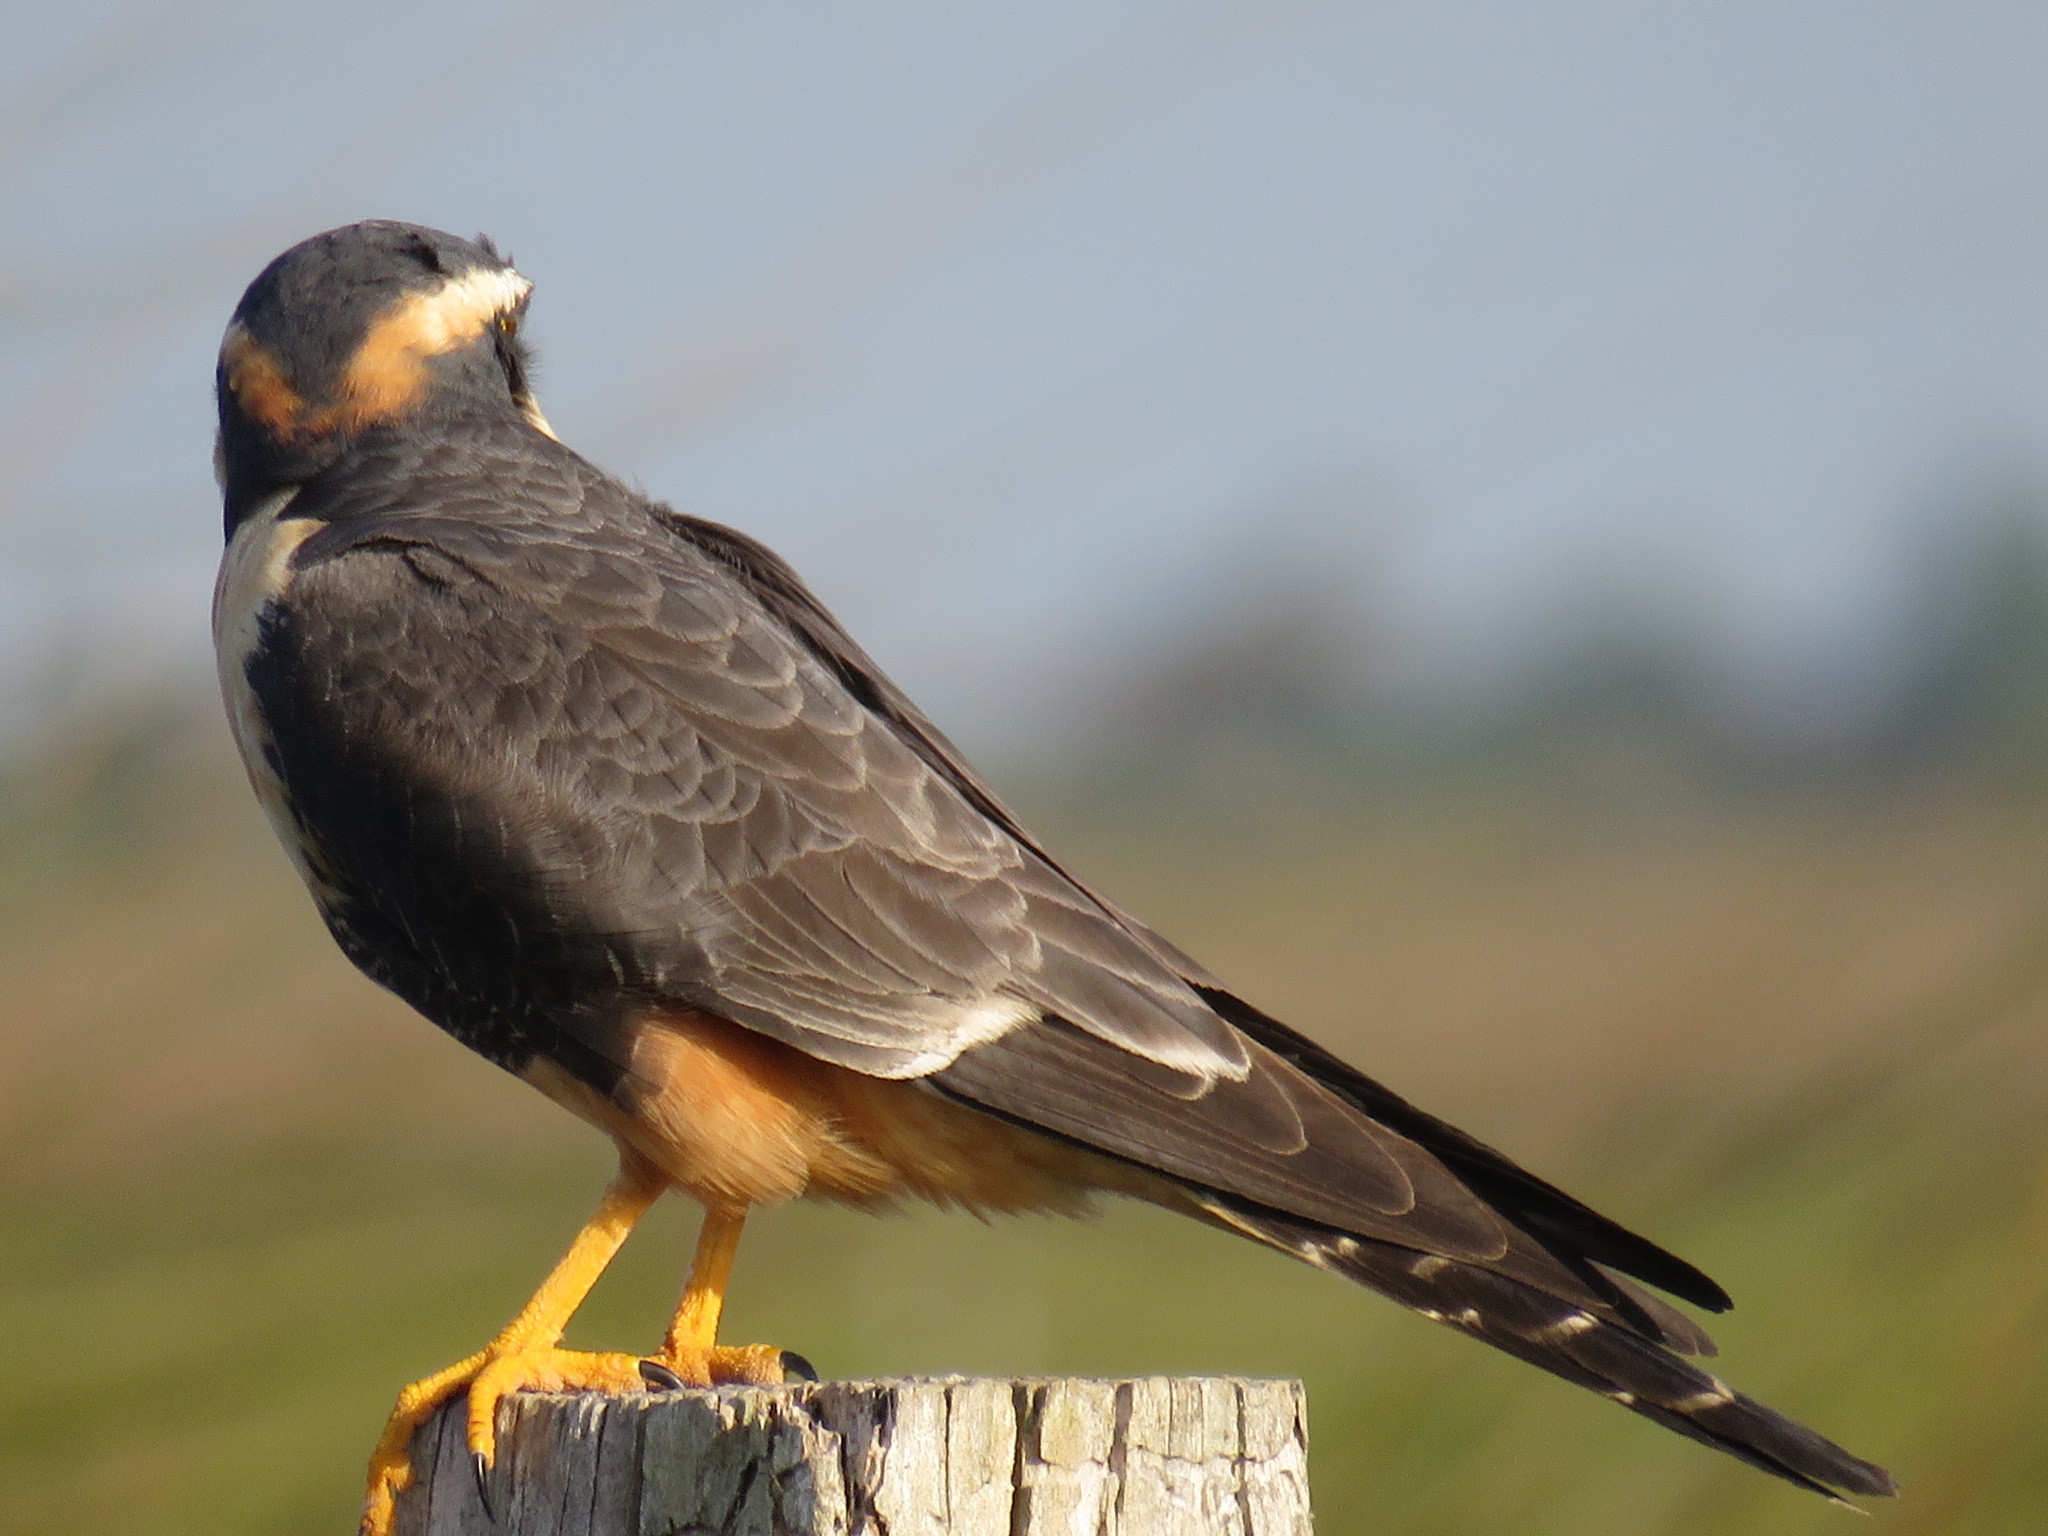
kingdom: Animalia
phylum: Chordata
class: Aves
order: Falconiformes
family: Falconidae
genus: Falco
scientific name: Falco femoralis
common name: Aplomado falcon
